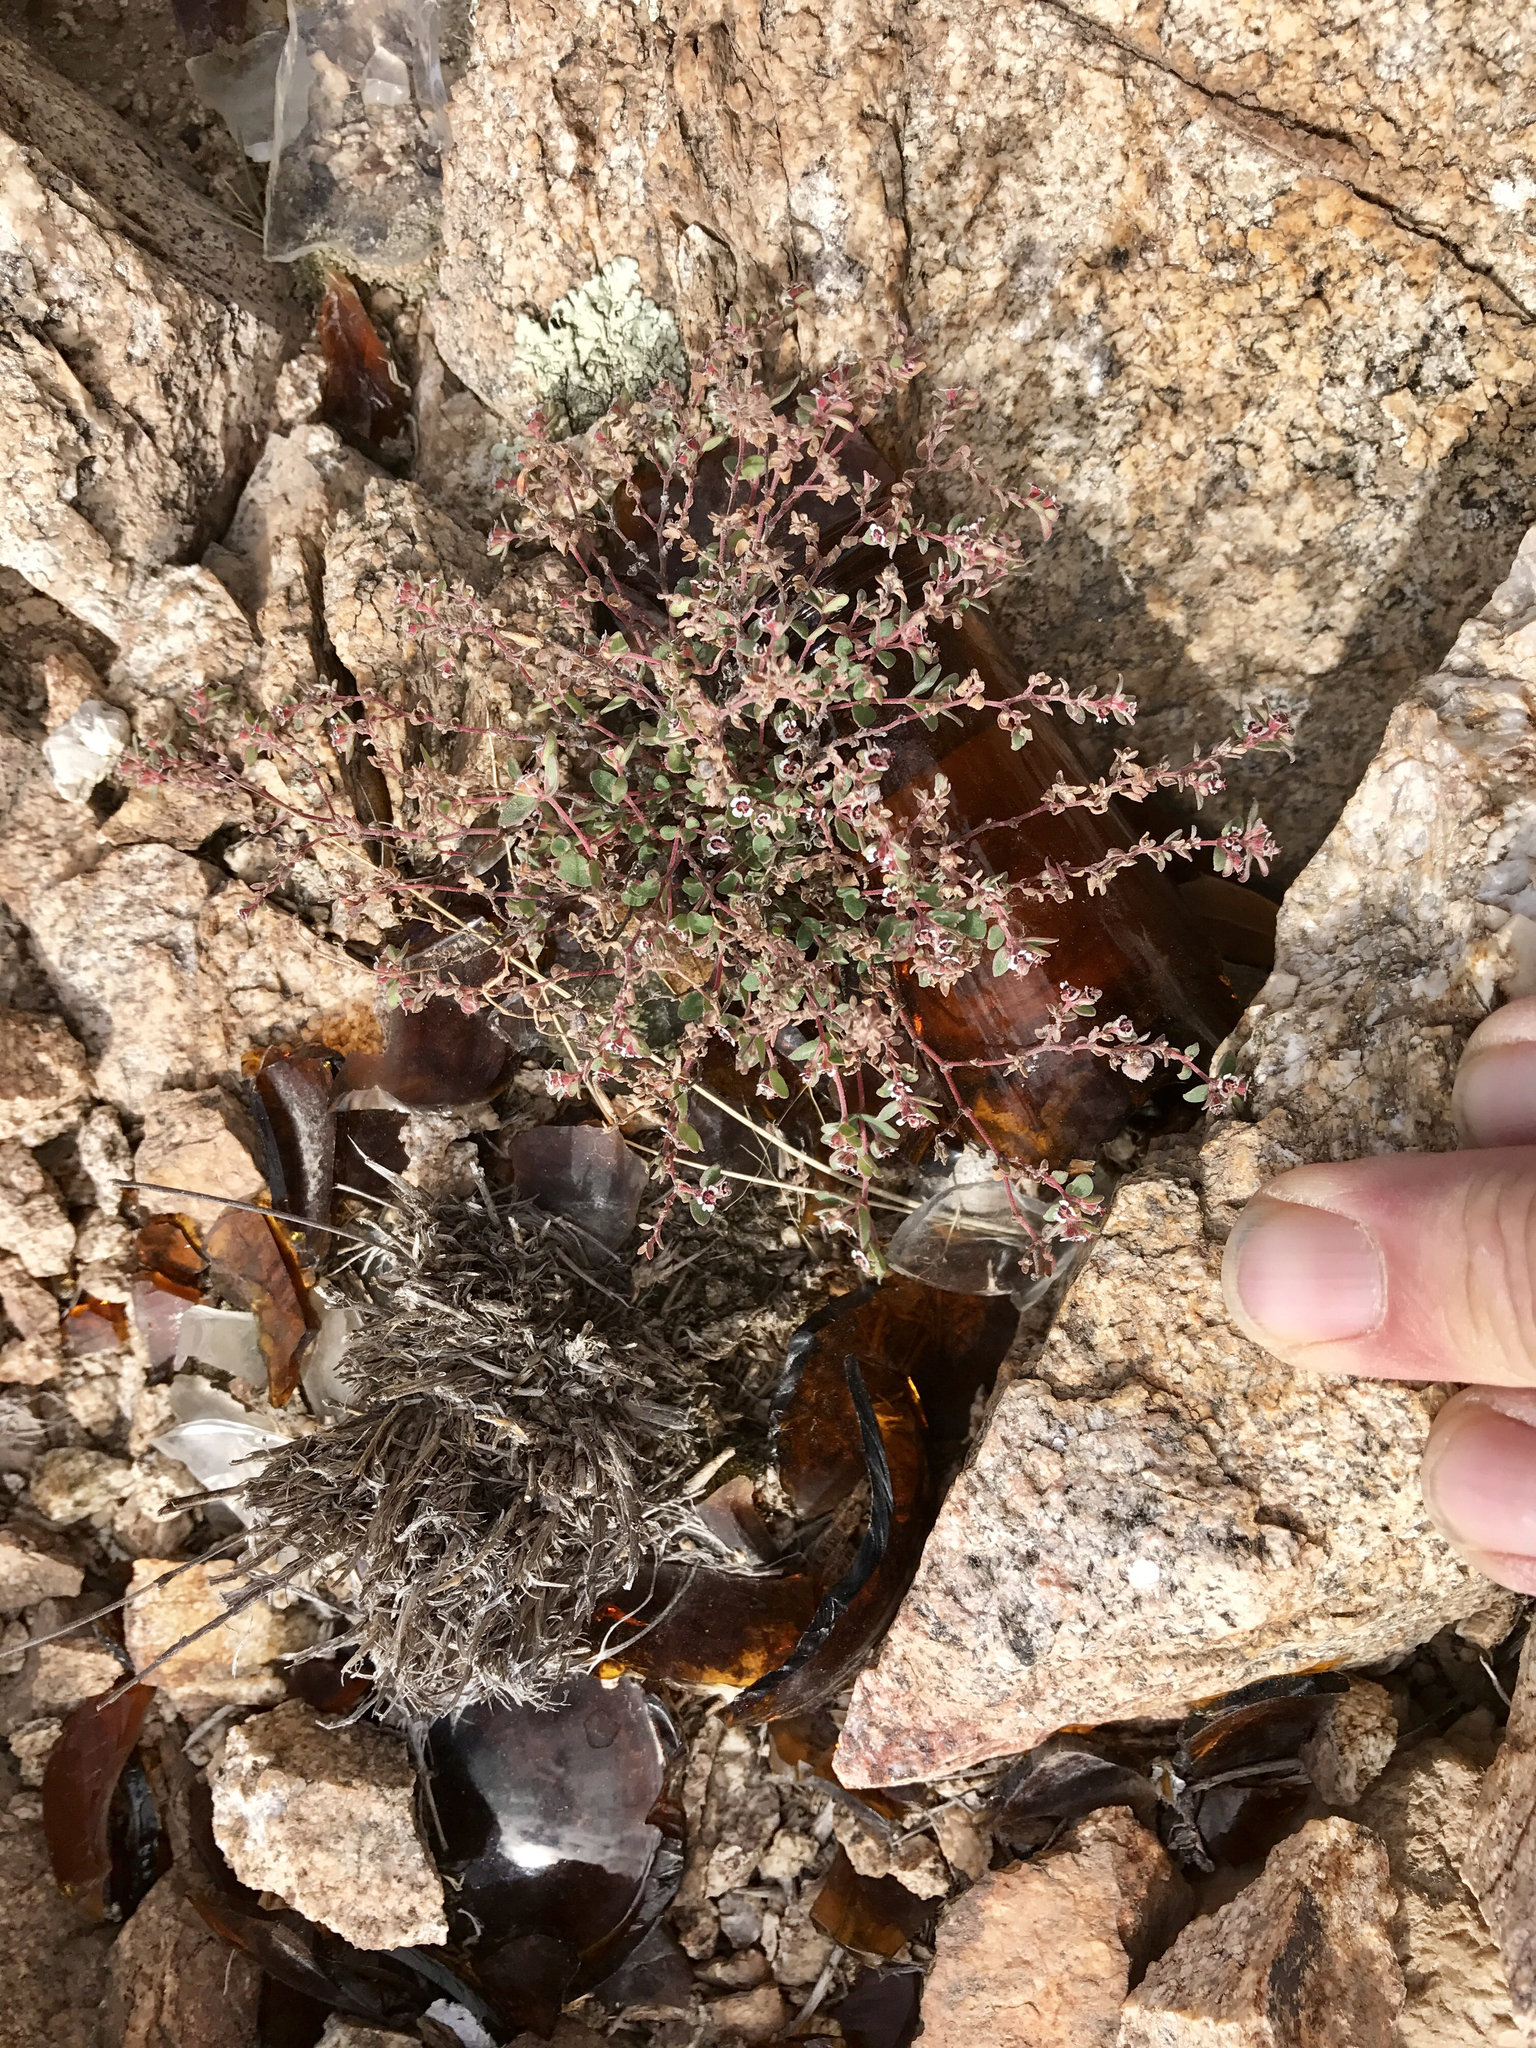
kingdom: Plantae
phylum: Tracheophyta
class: Magnoliopsida
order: Malpighiales
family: Euphorbiaceae
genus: Euphorbia
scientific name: Euphorbia melanadenia
